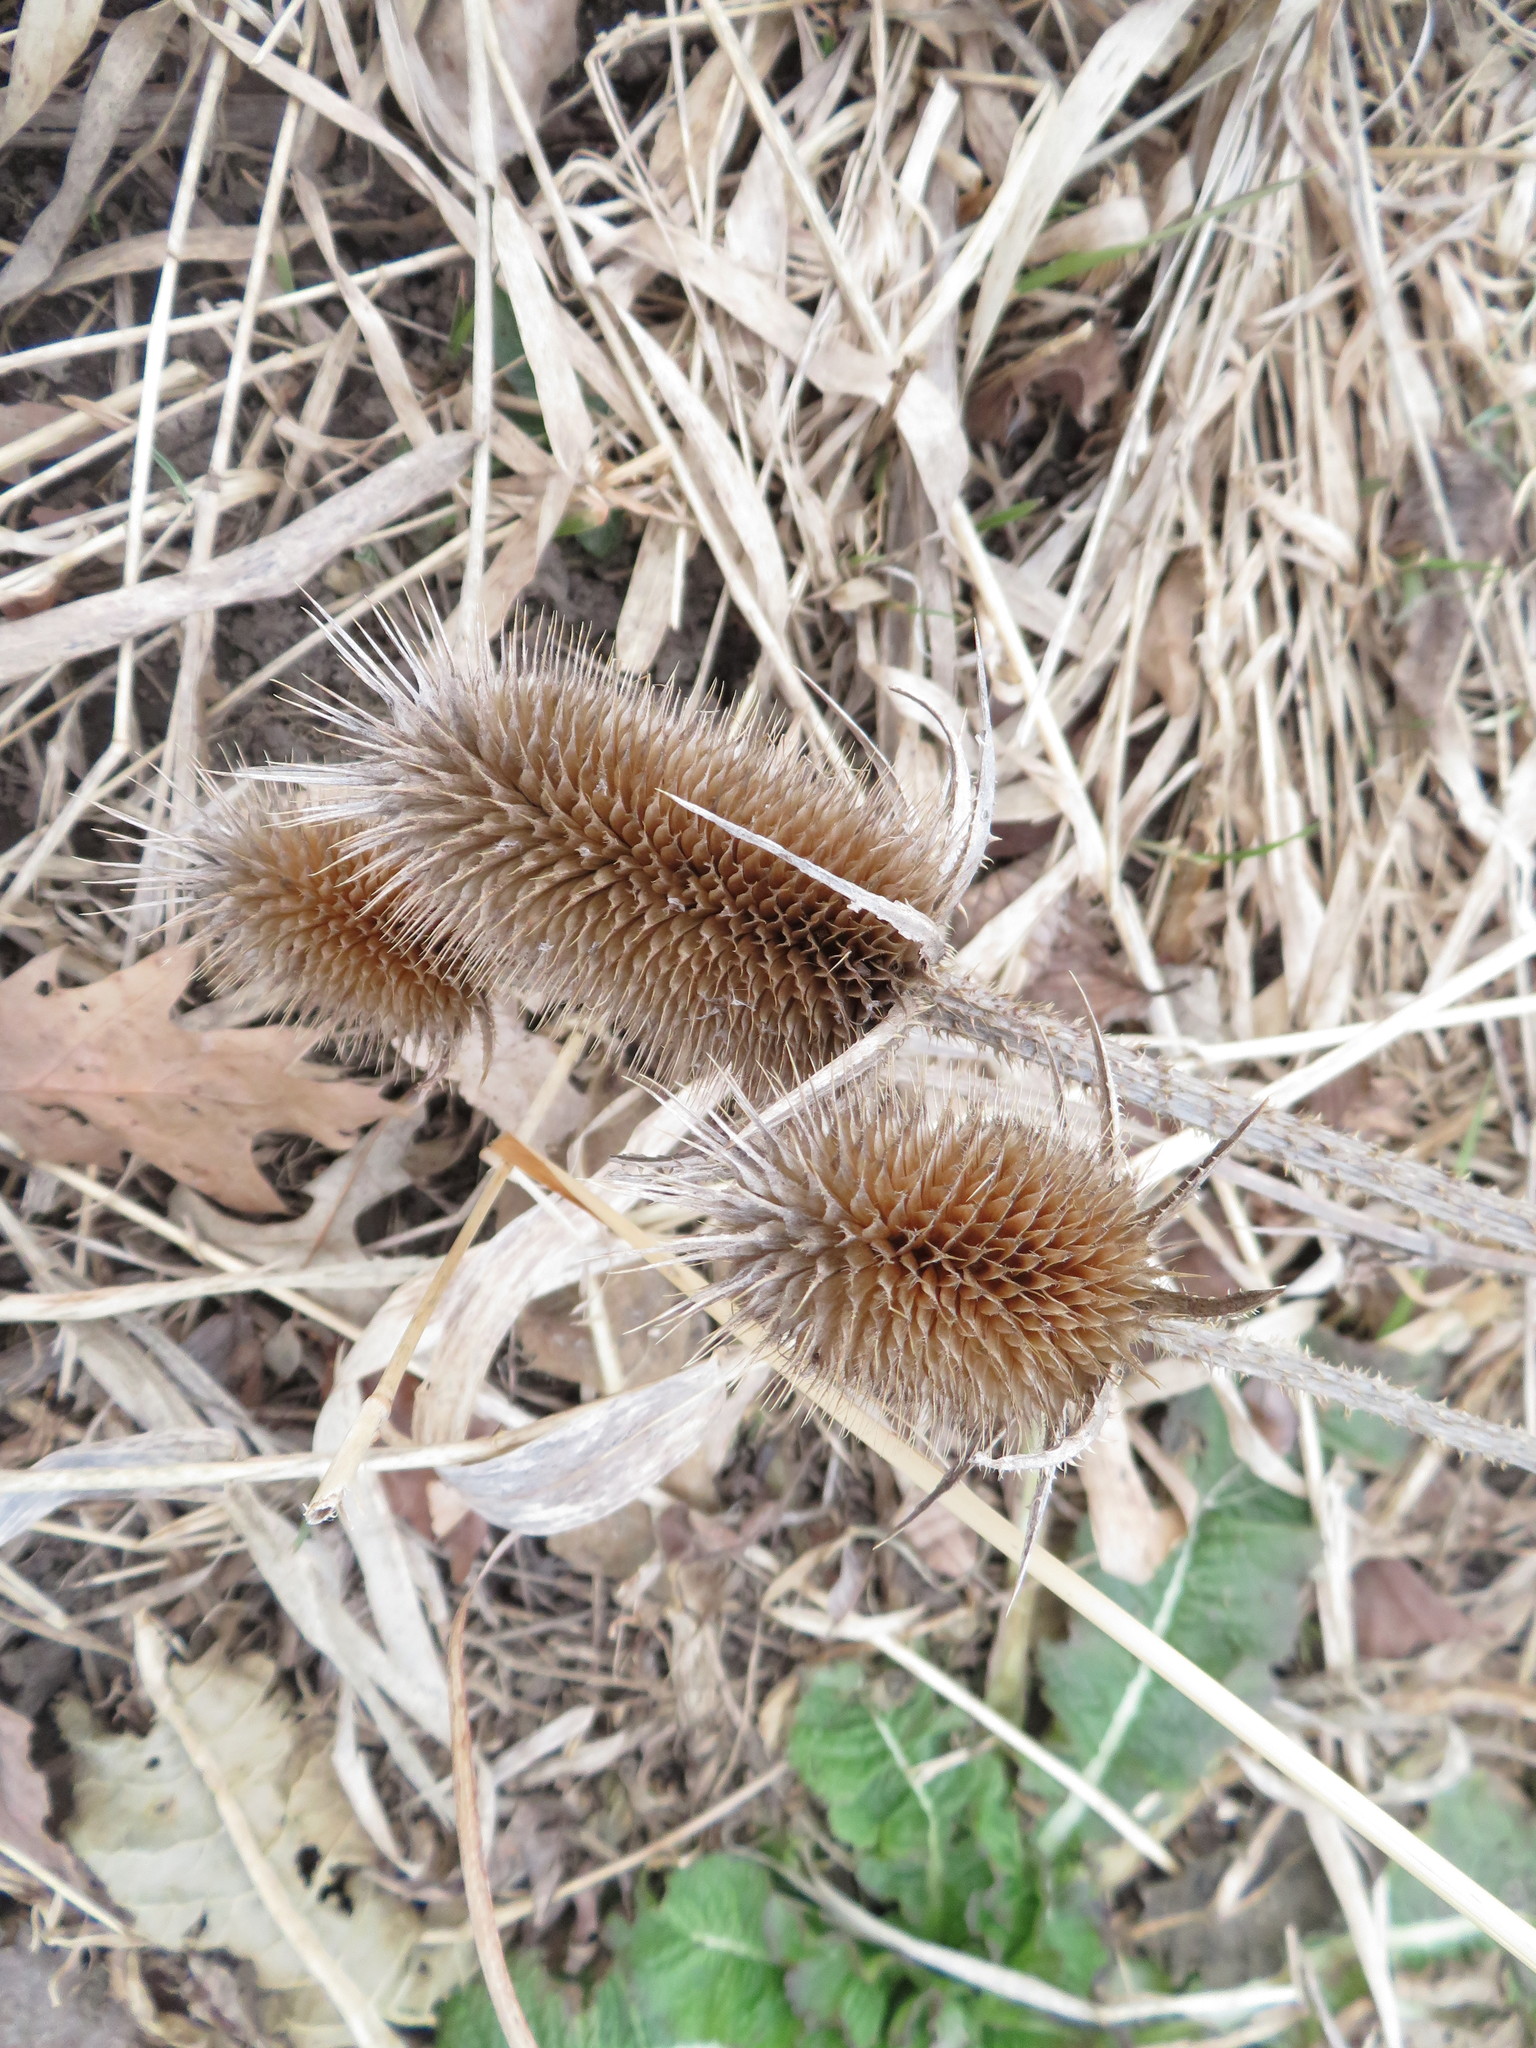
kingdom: Plantae
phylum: Tracheophyta
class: Magnoliopsida
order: Dipsacales
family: Caprifoliaceae
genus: Dipsacus
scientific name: Dipsacus laciniatus
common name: Cut-leaved teasel
